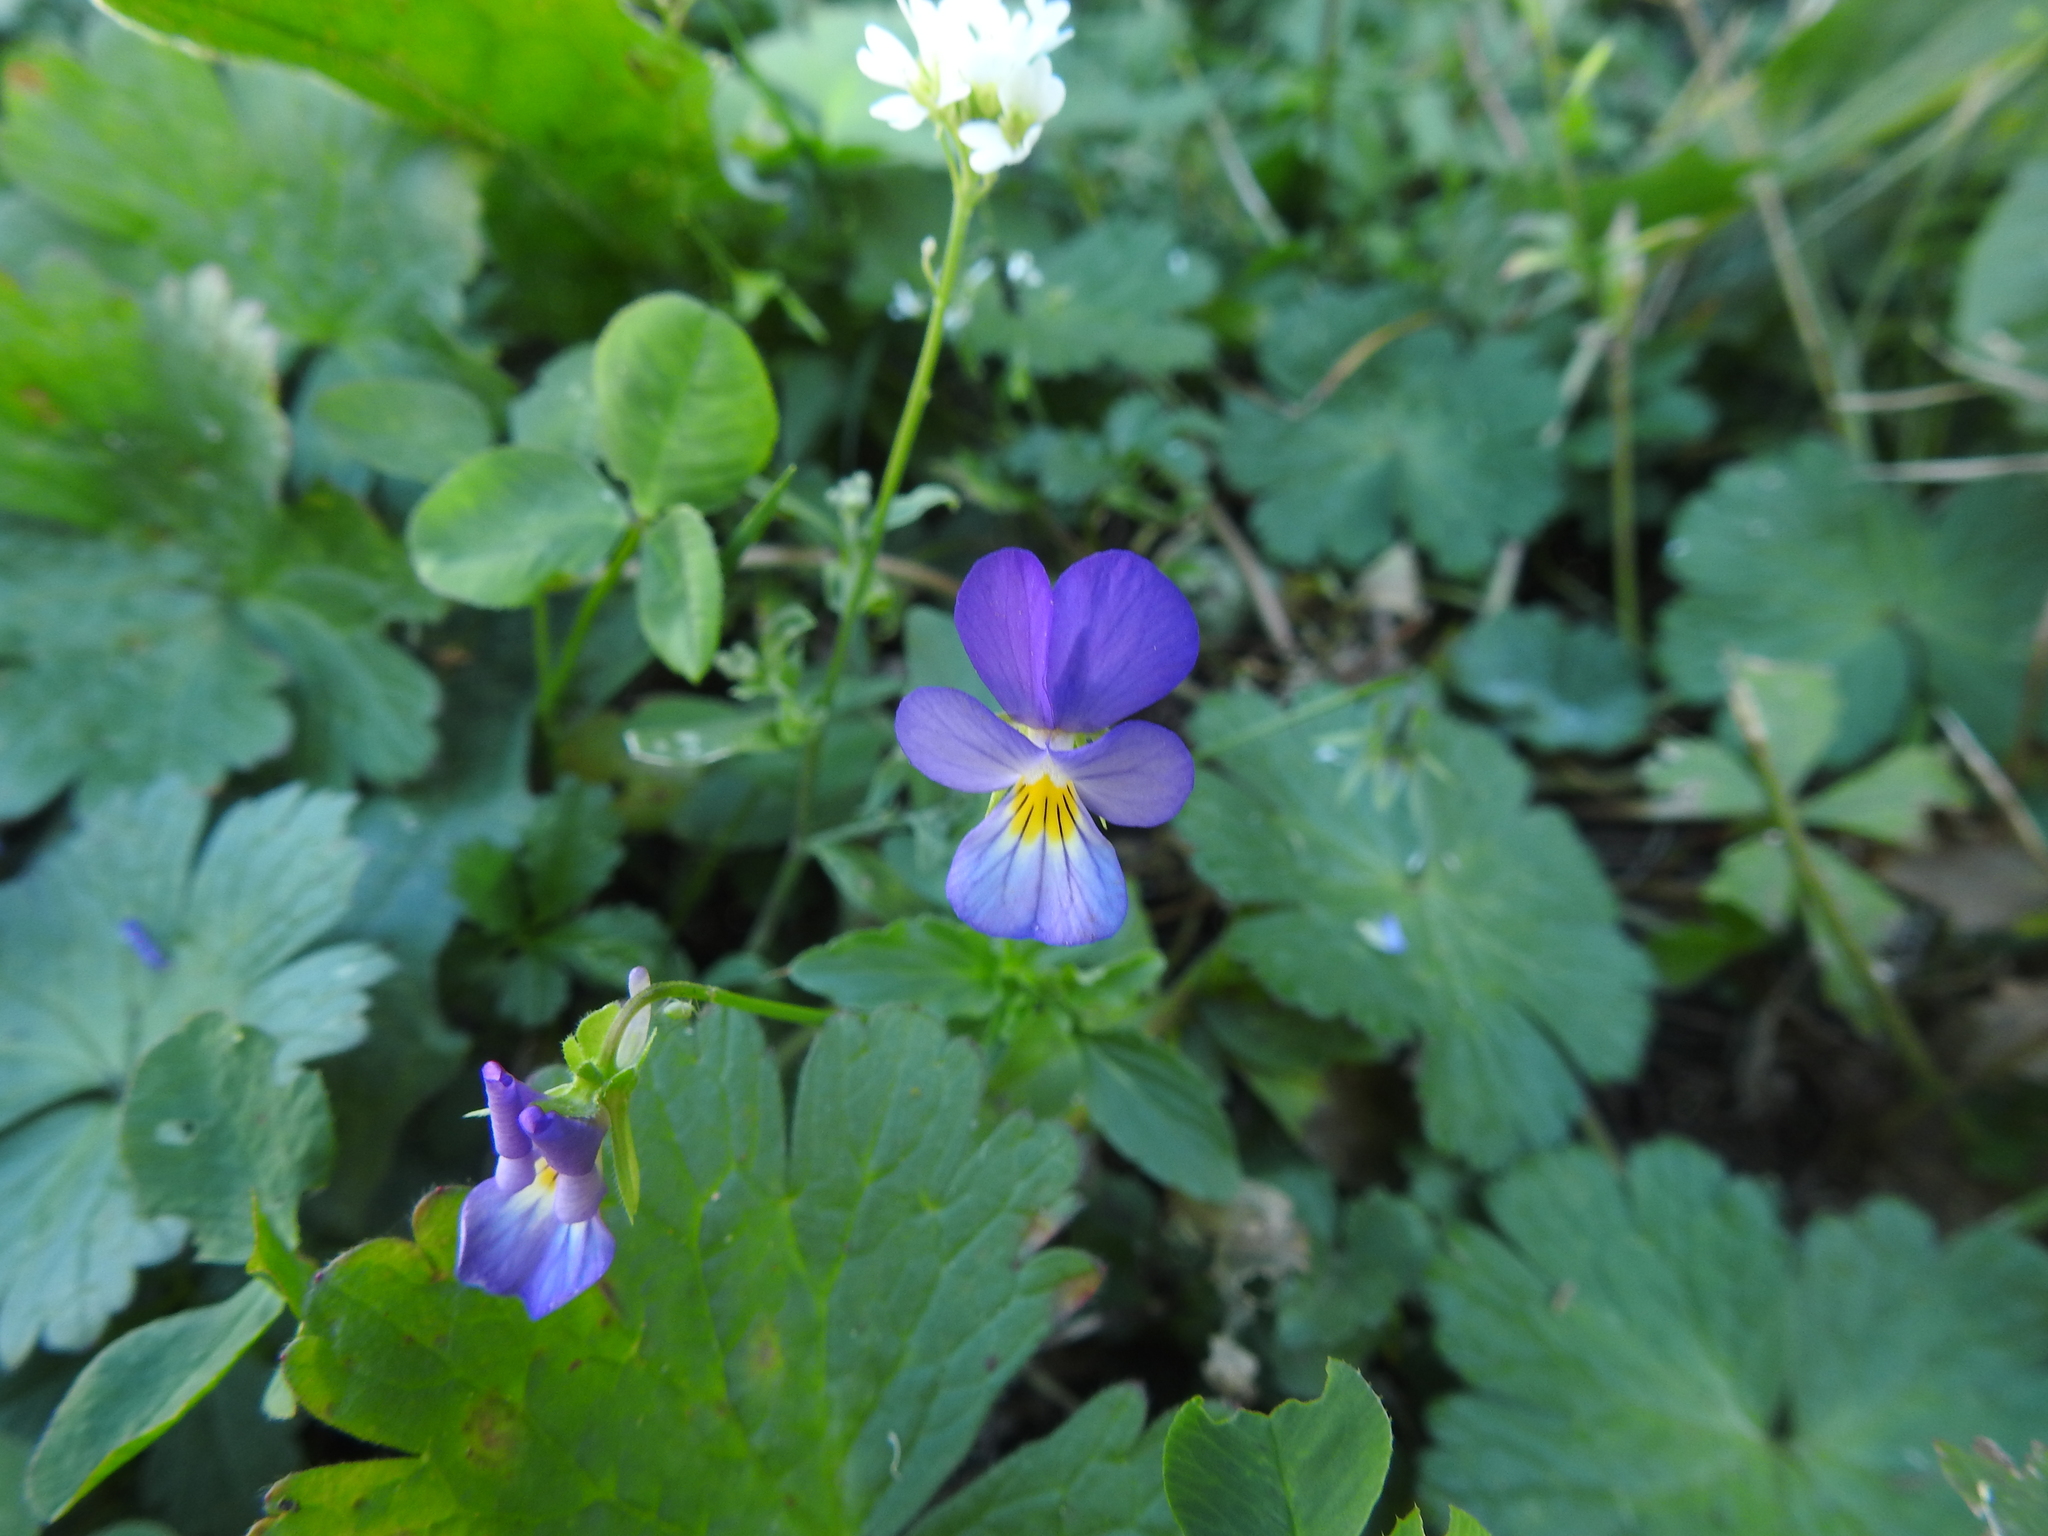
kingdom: Plantae
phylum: Tracheophyta
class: Magnoliopsida
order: Malpighiales
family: Violaceae
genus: Viola
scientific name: Viola tricolor
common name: Pansy
